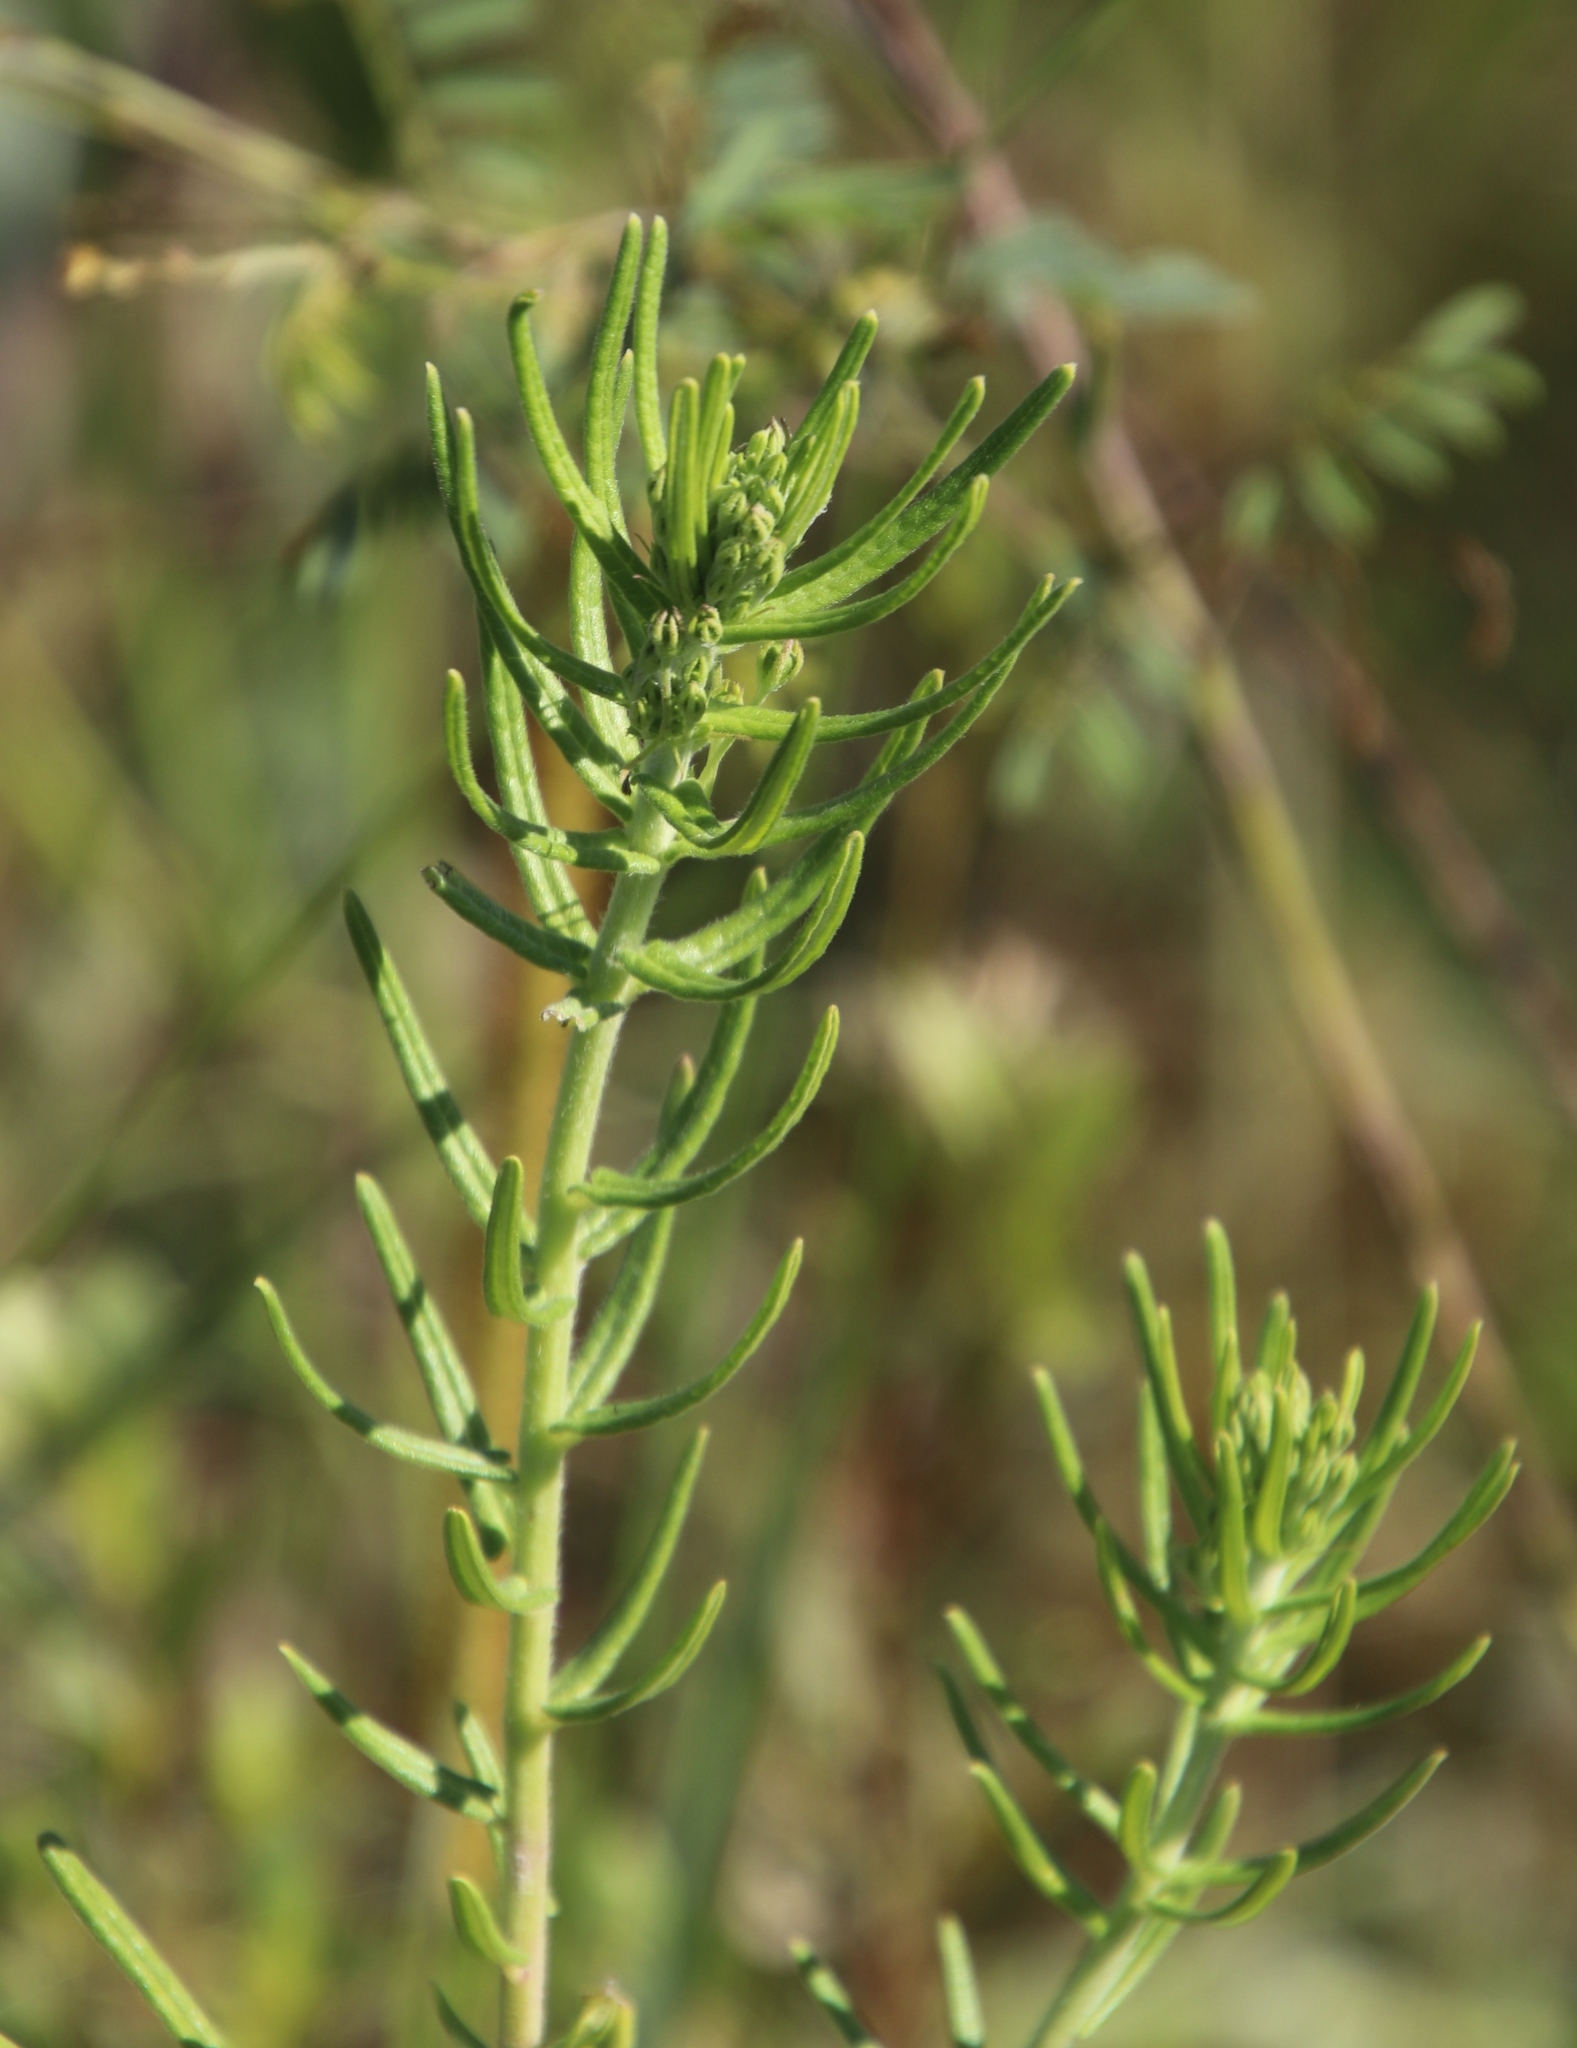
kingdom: Plantae
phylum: Tracheophyta
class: Magnoliopsida
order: Lamiales
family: Lamiaceae
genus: Teucrium
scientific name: Teucrium trifidum
